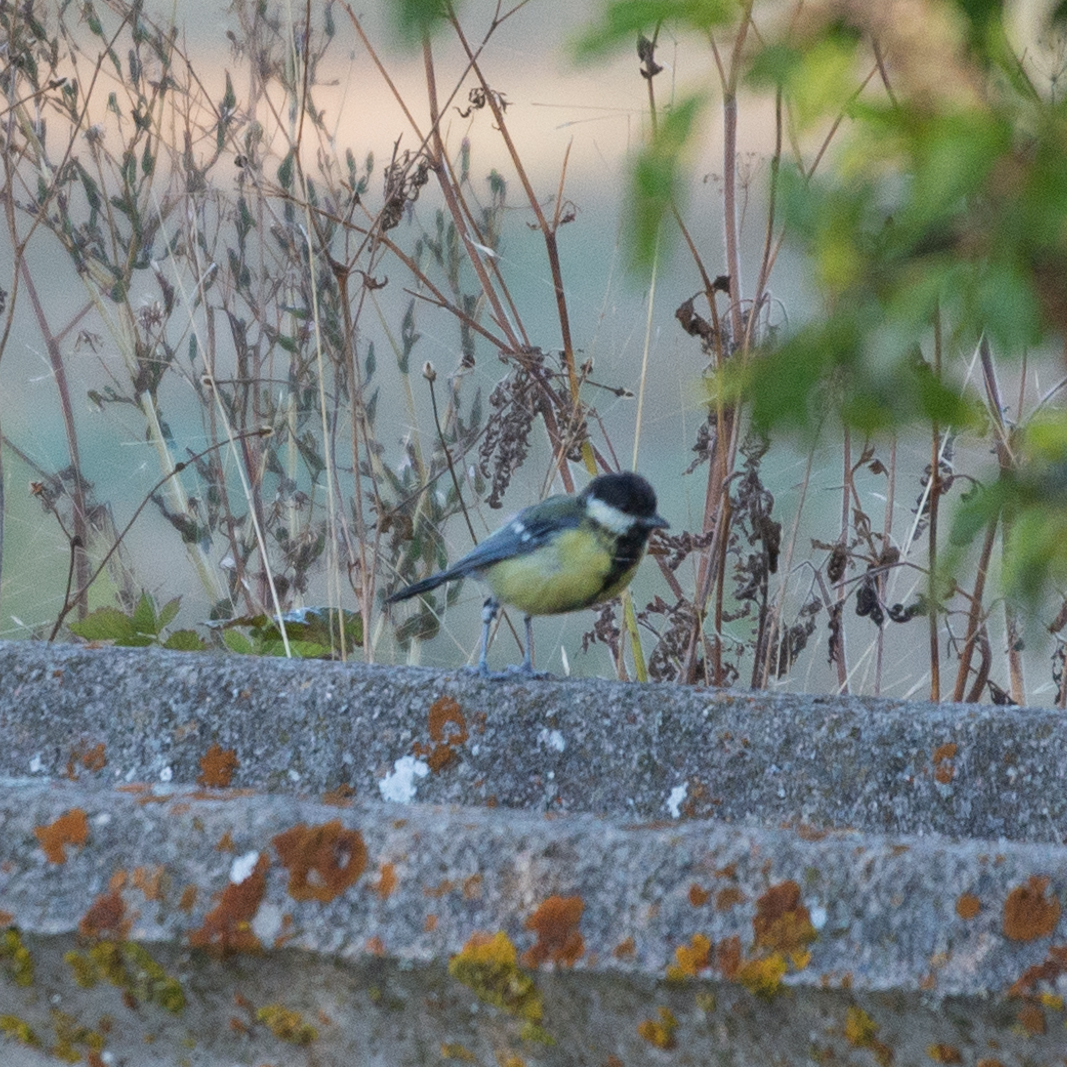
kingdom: Animalia
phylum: Chordata
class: Aves
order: Passeriformes
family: Paridae
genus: Parus
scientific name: Parus major
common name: Great tit
